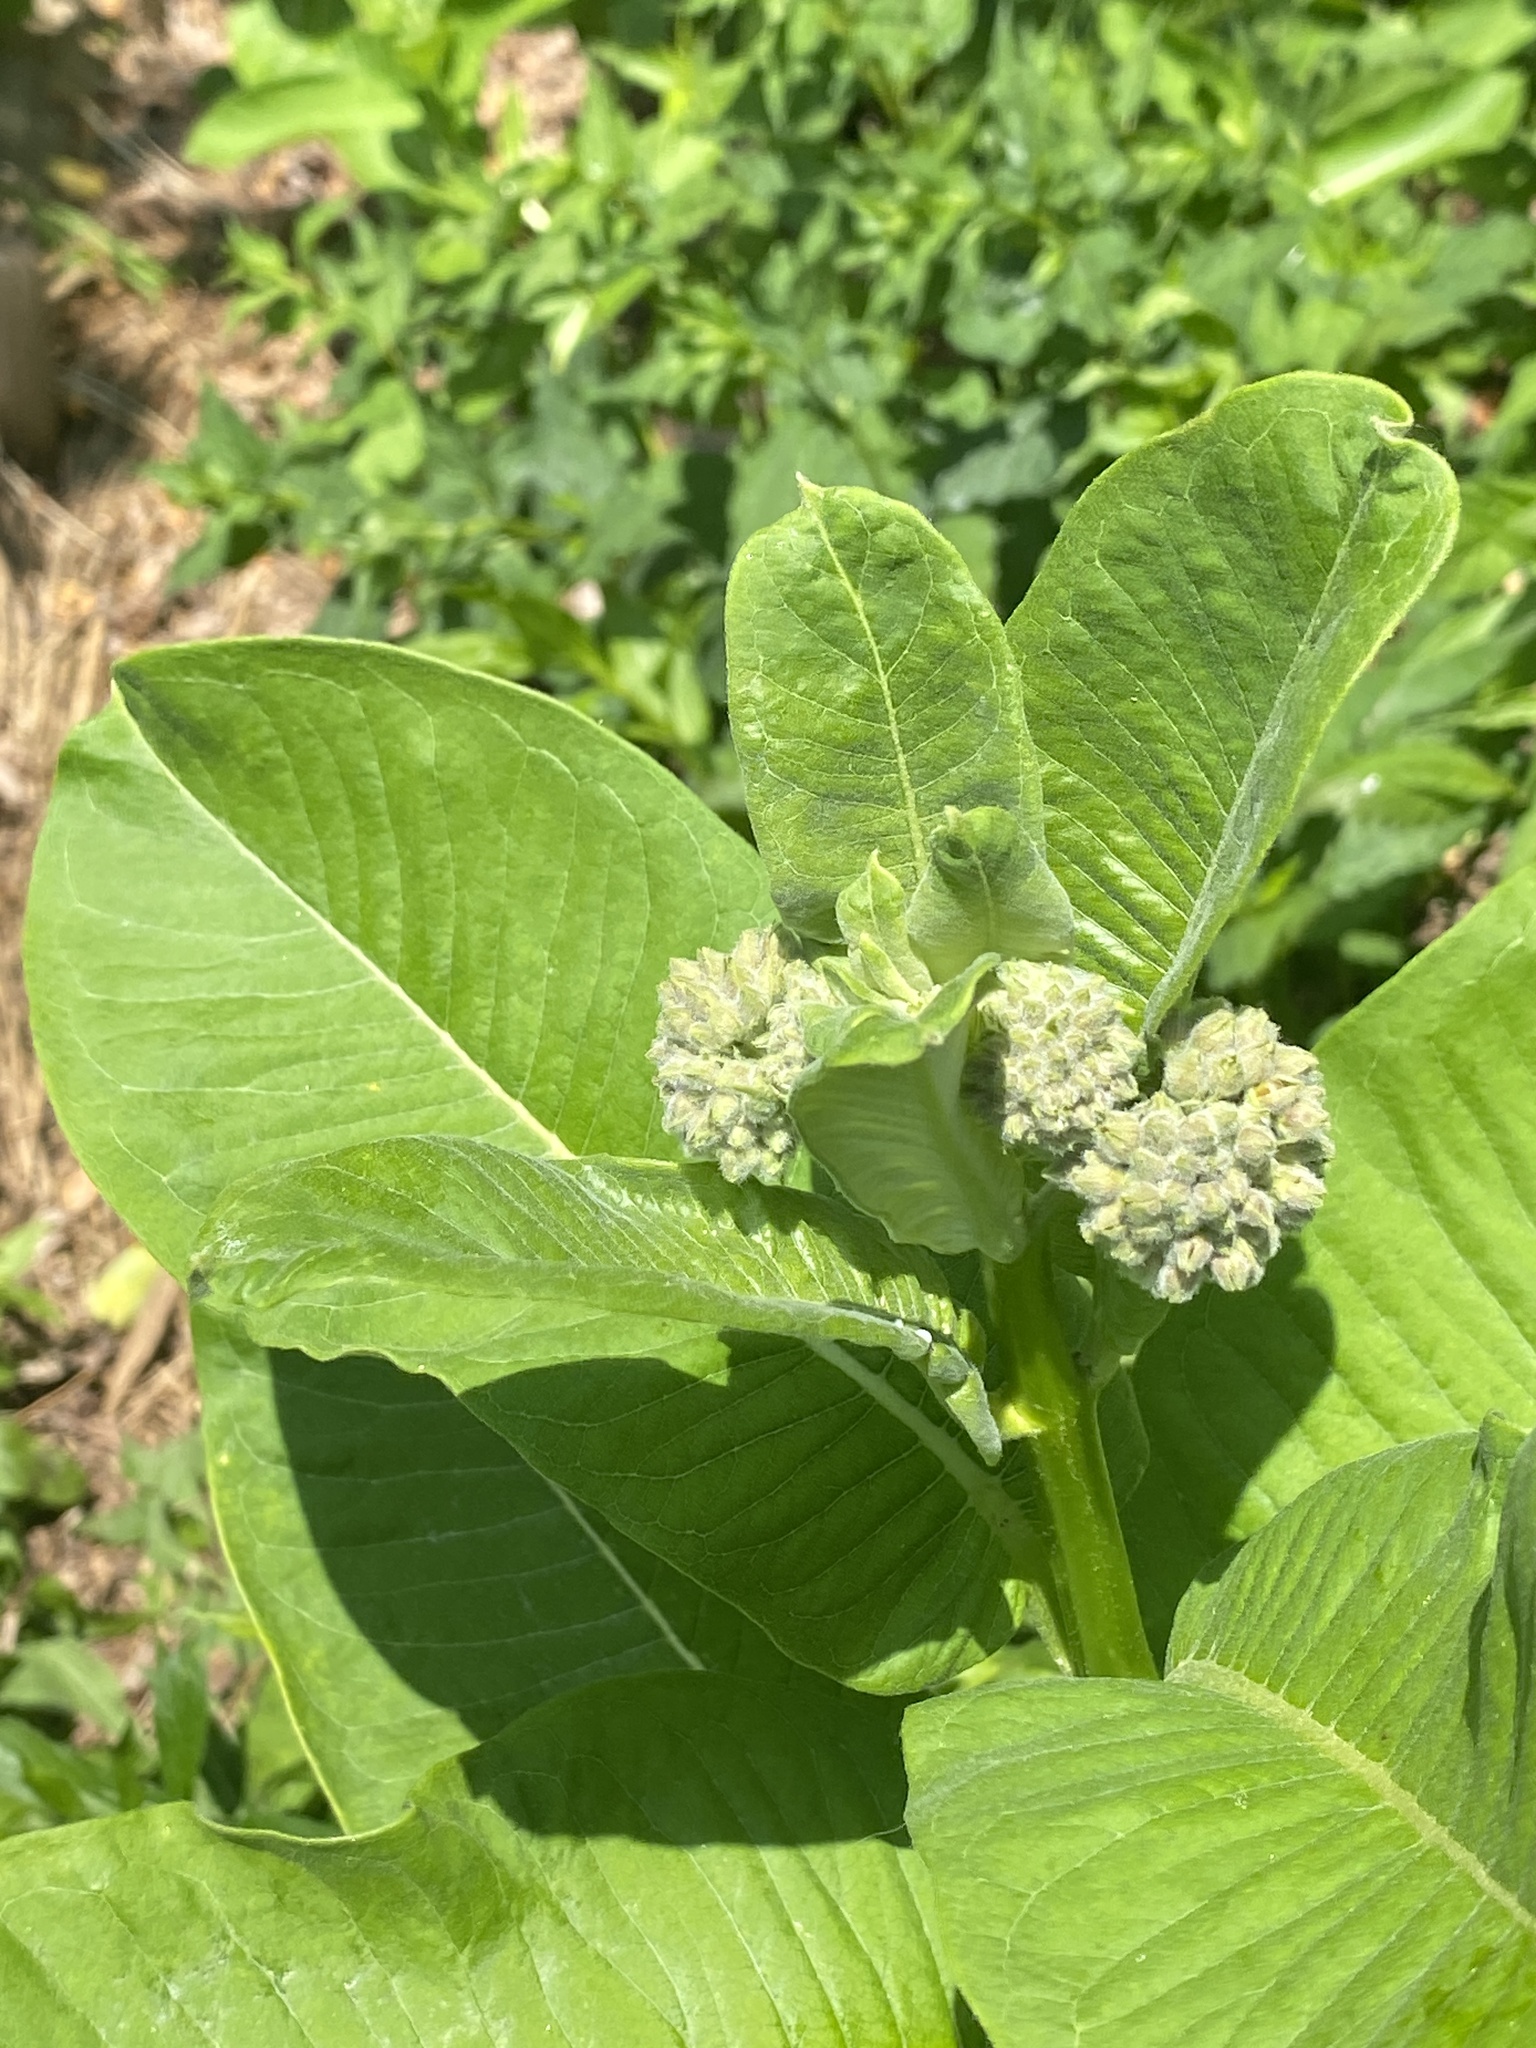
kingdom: Plantae
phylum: Tracheophyta
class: Magnoliopsida
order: Gentianales
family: Apocynaceae
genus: Asclepias
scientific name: Asclepias syriaca
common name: Common milkweed
